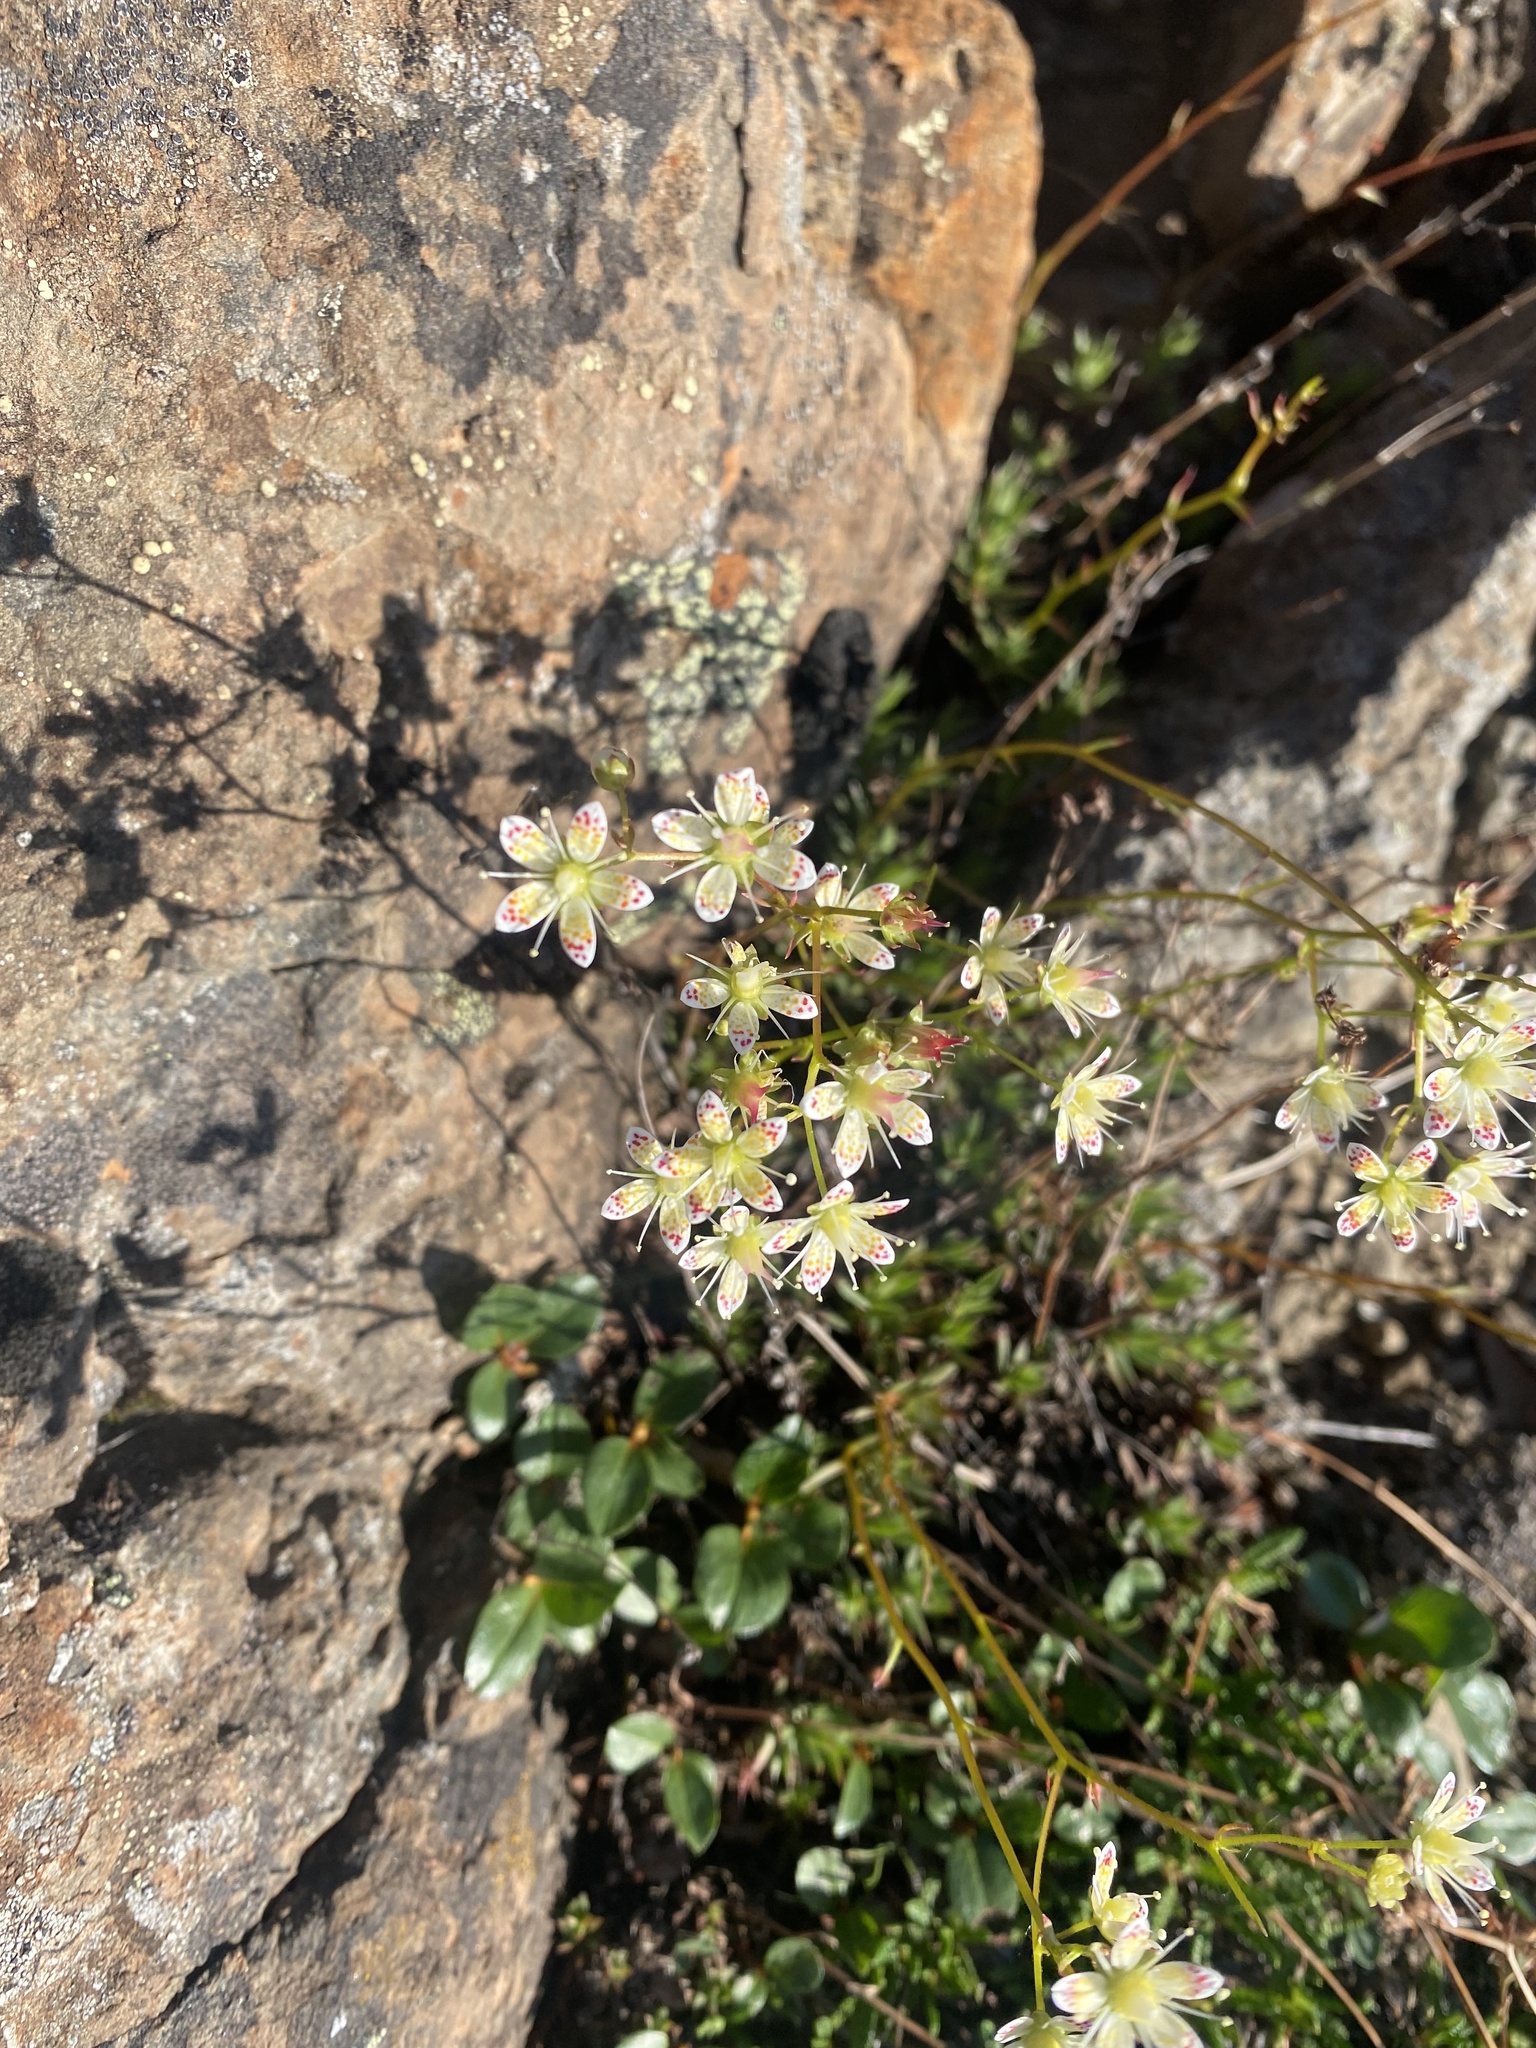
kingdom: Plantae
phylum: Tracheophyta
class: Magnoliopsida
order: Saxifragales
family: Saxifragaceae
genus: Saxifraga
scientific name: Saxifraga
